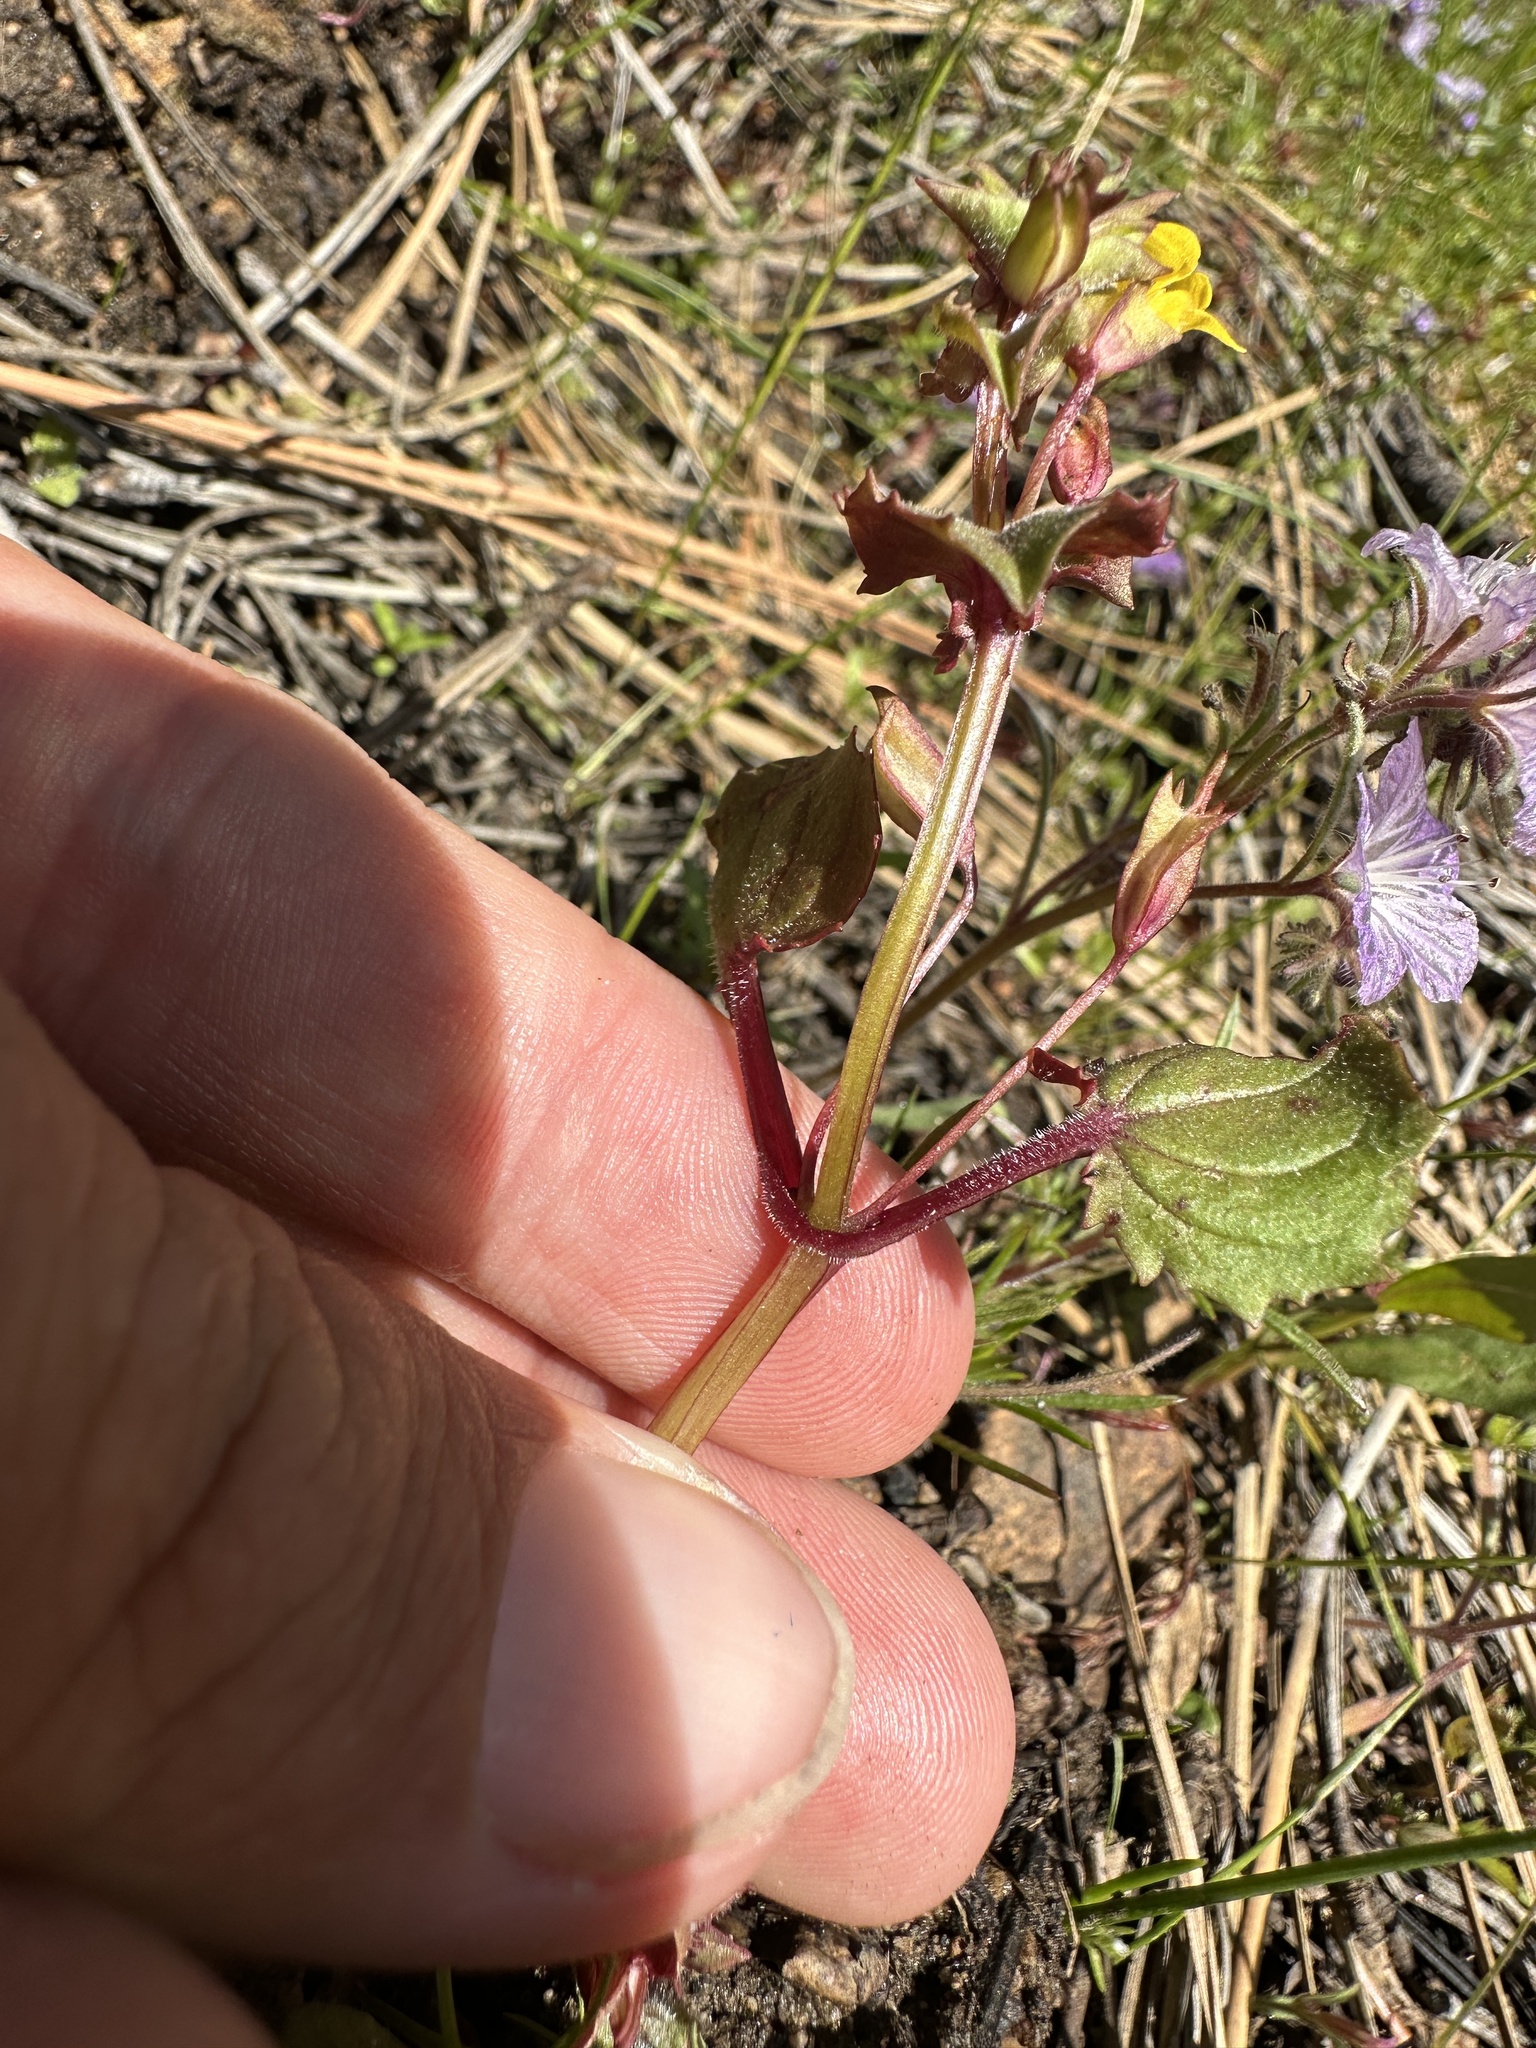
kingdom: Plantae
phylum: Tracheophyta
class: Magnoliopsida
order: Lamiales
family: Phrymaceae
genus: Erythranthe
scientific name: Erythranthe nasuta
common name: Sooke monkeyflower
